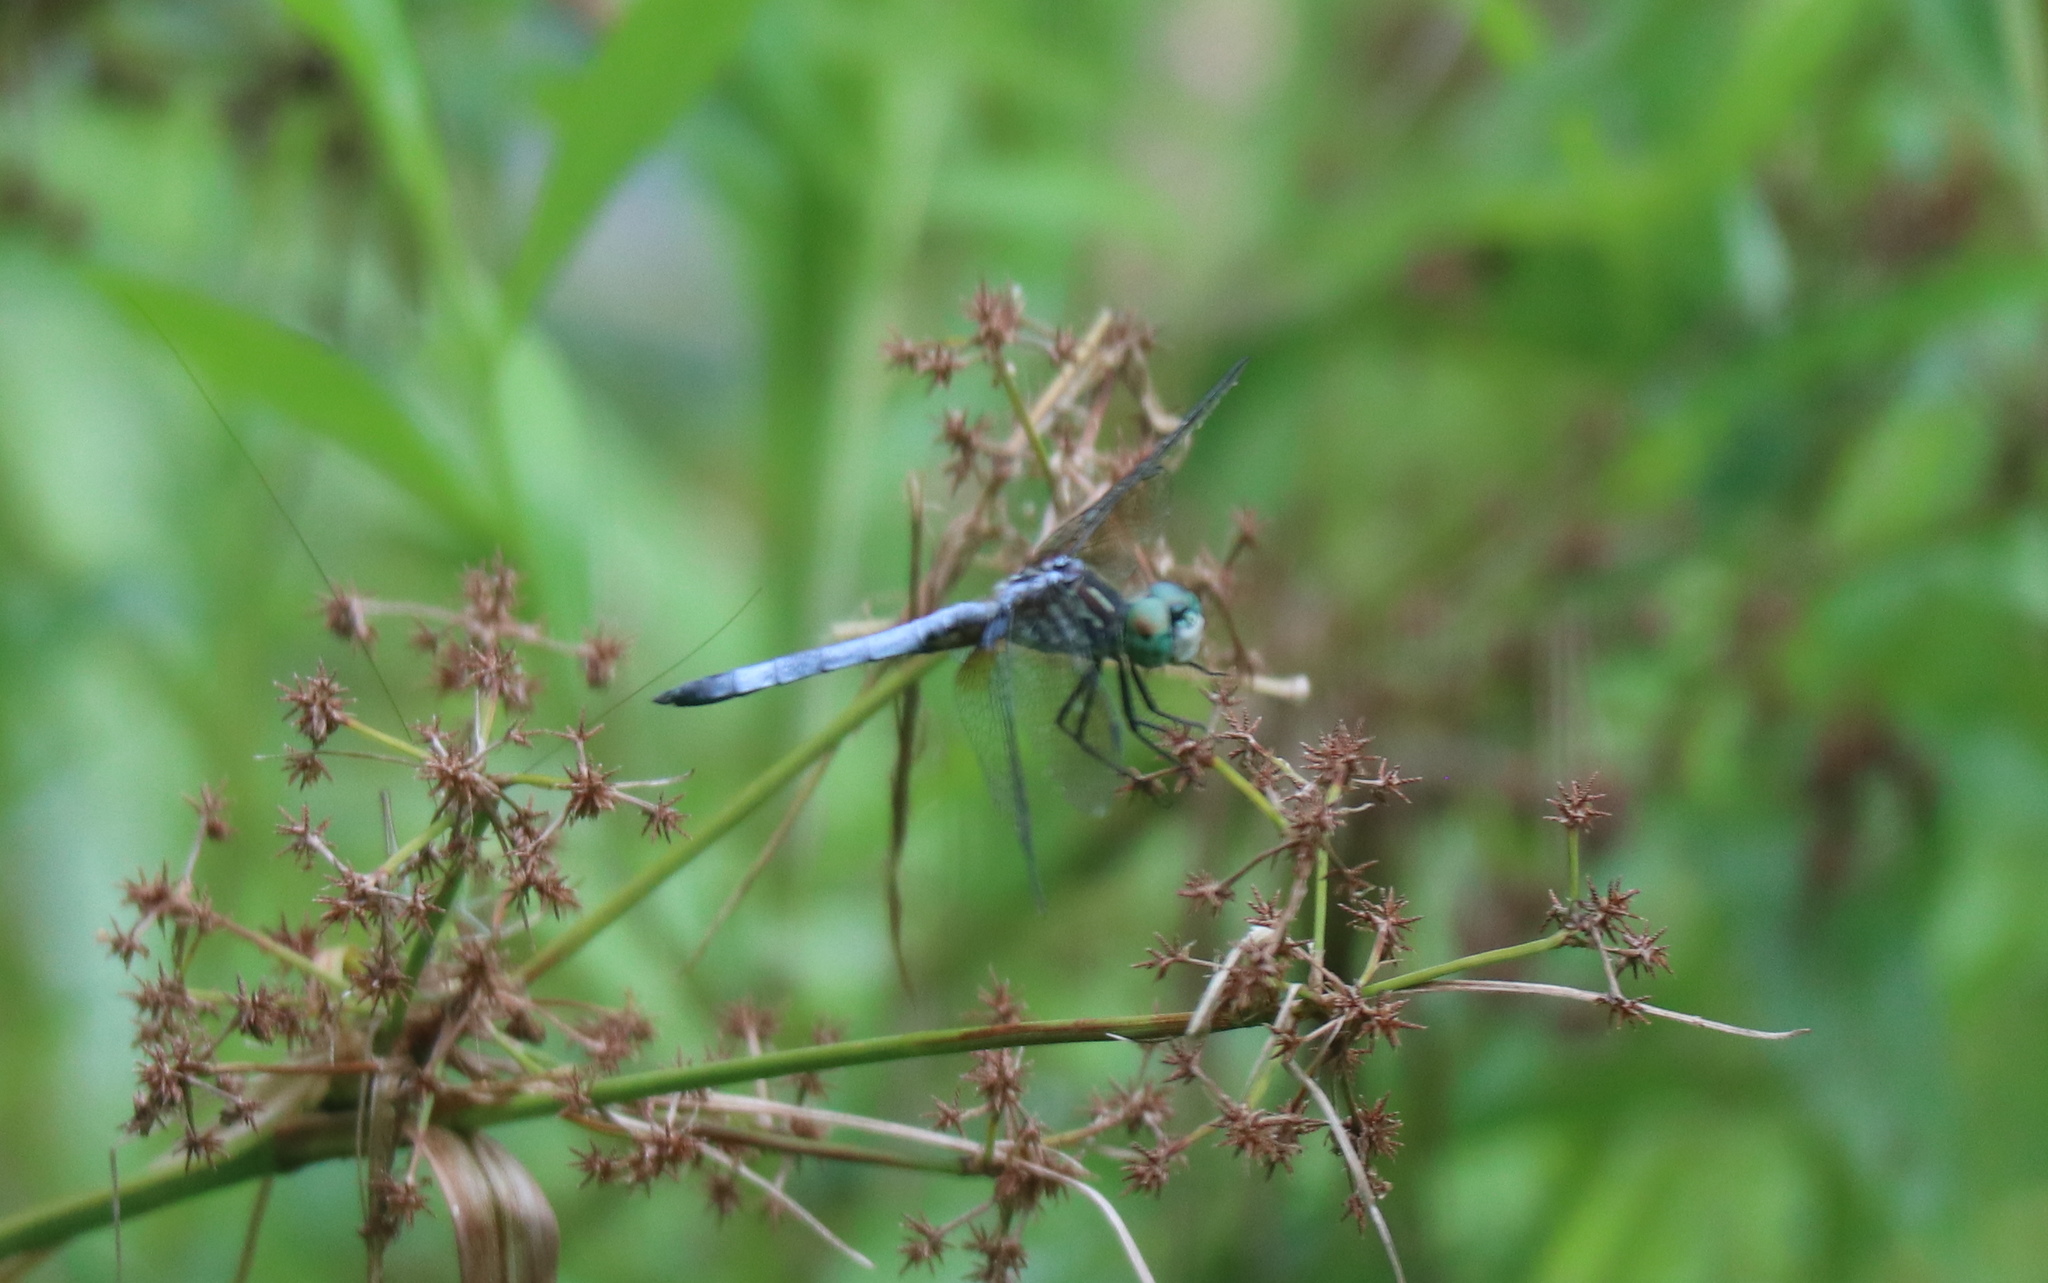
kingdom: Animalia
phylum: Arthropoda
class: Insecta
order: Odonata
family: Libellulidae
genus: Pachydiplax
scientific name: Pachydiplax longipennis
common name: Blue dasher
